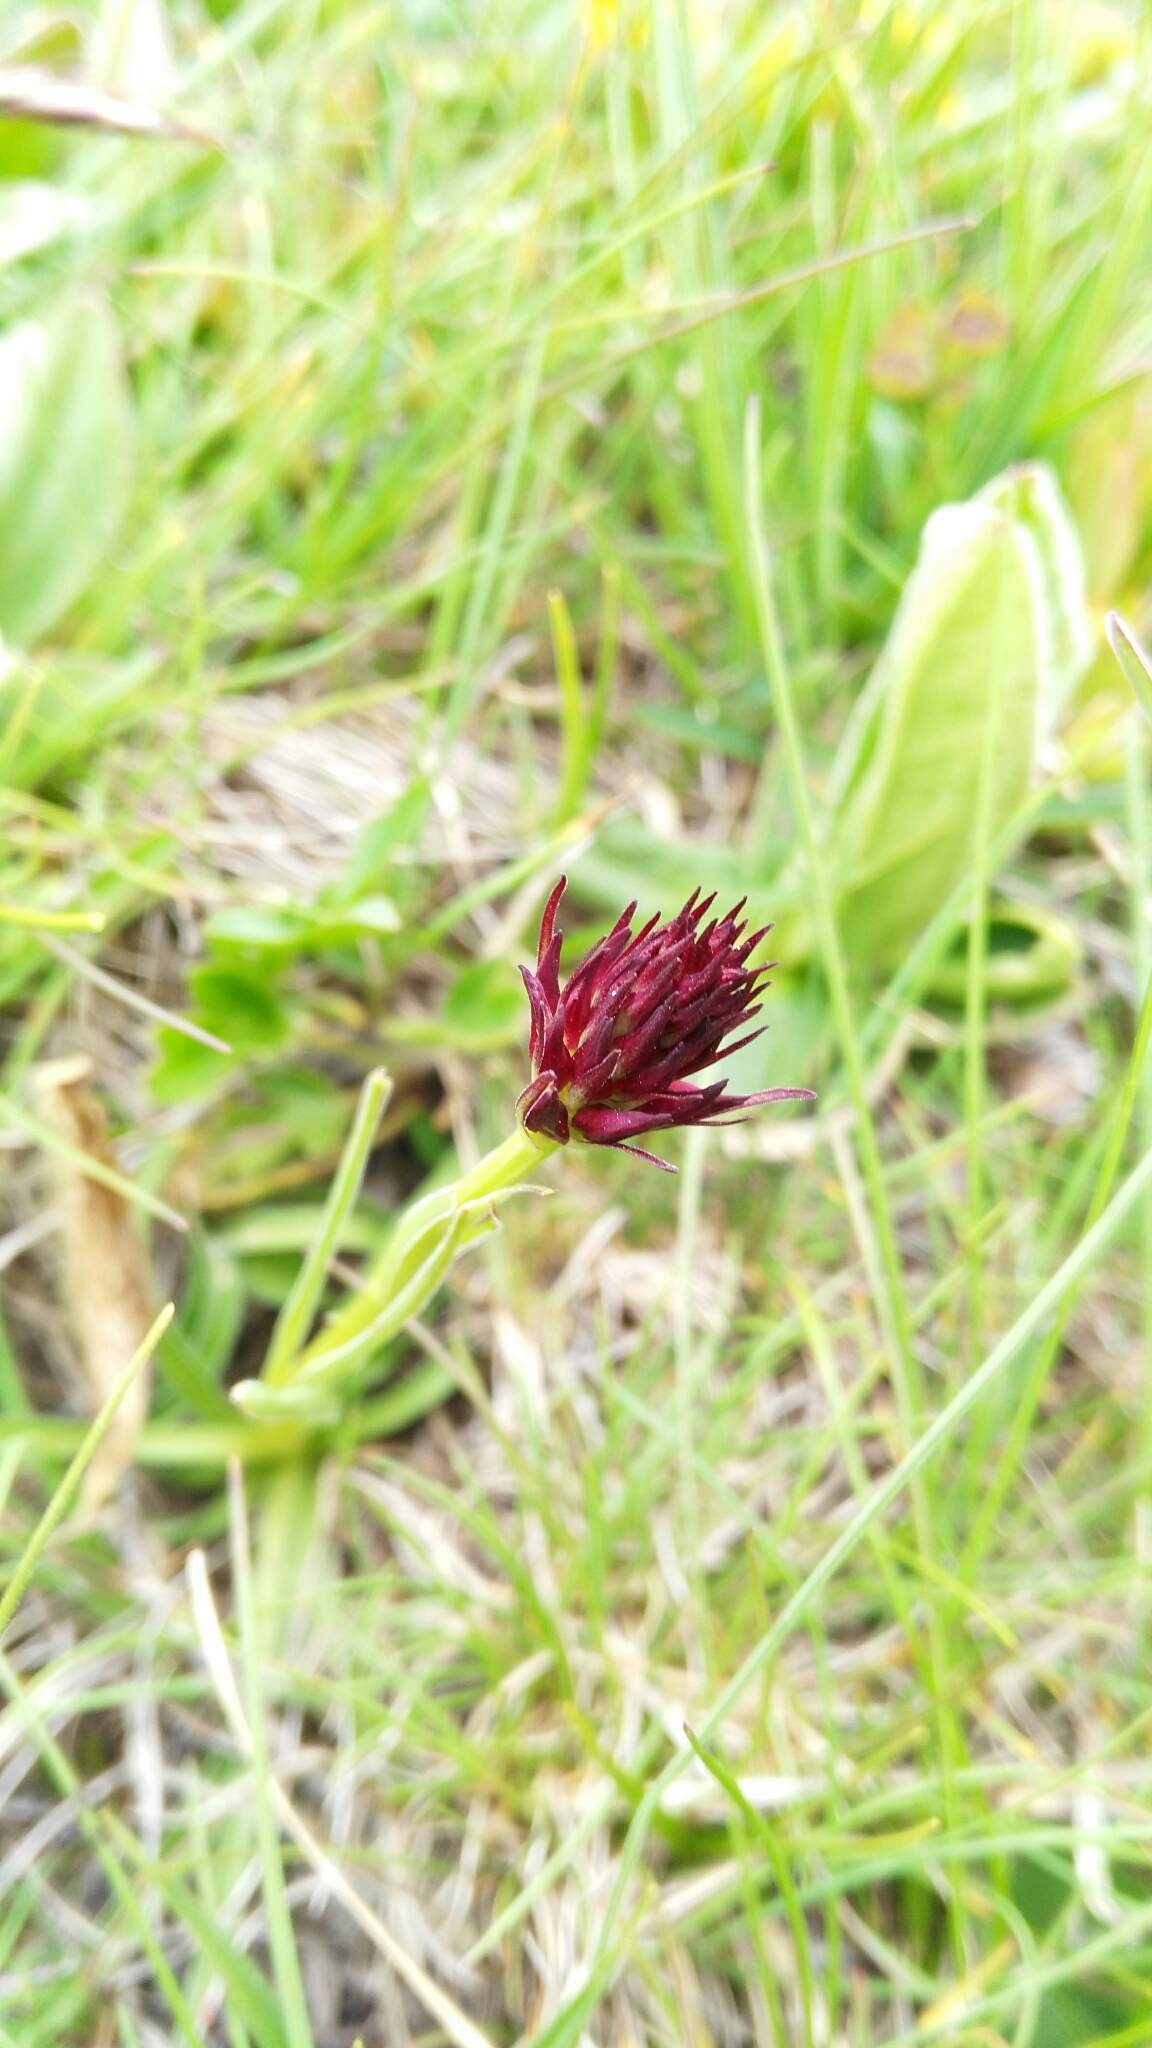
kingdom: Plantae
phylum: Tracheophyta
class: Liliopsida
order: Asparagales
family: Orchidaceae
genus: Gymnadenia
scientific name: Gymnadenia austriaca
